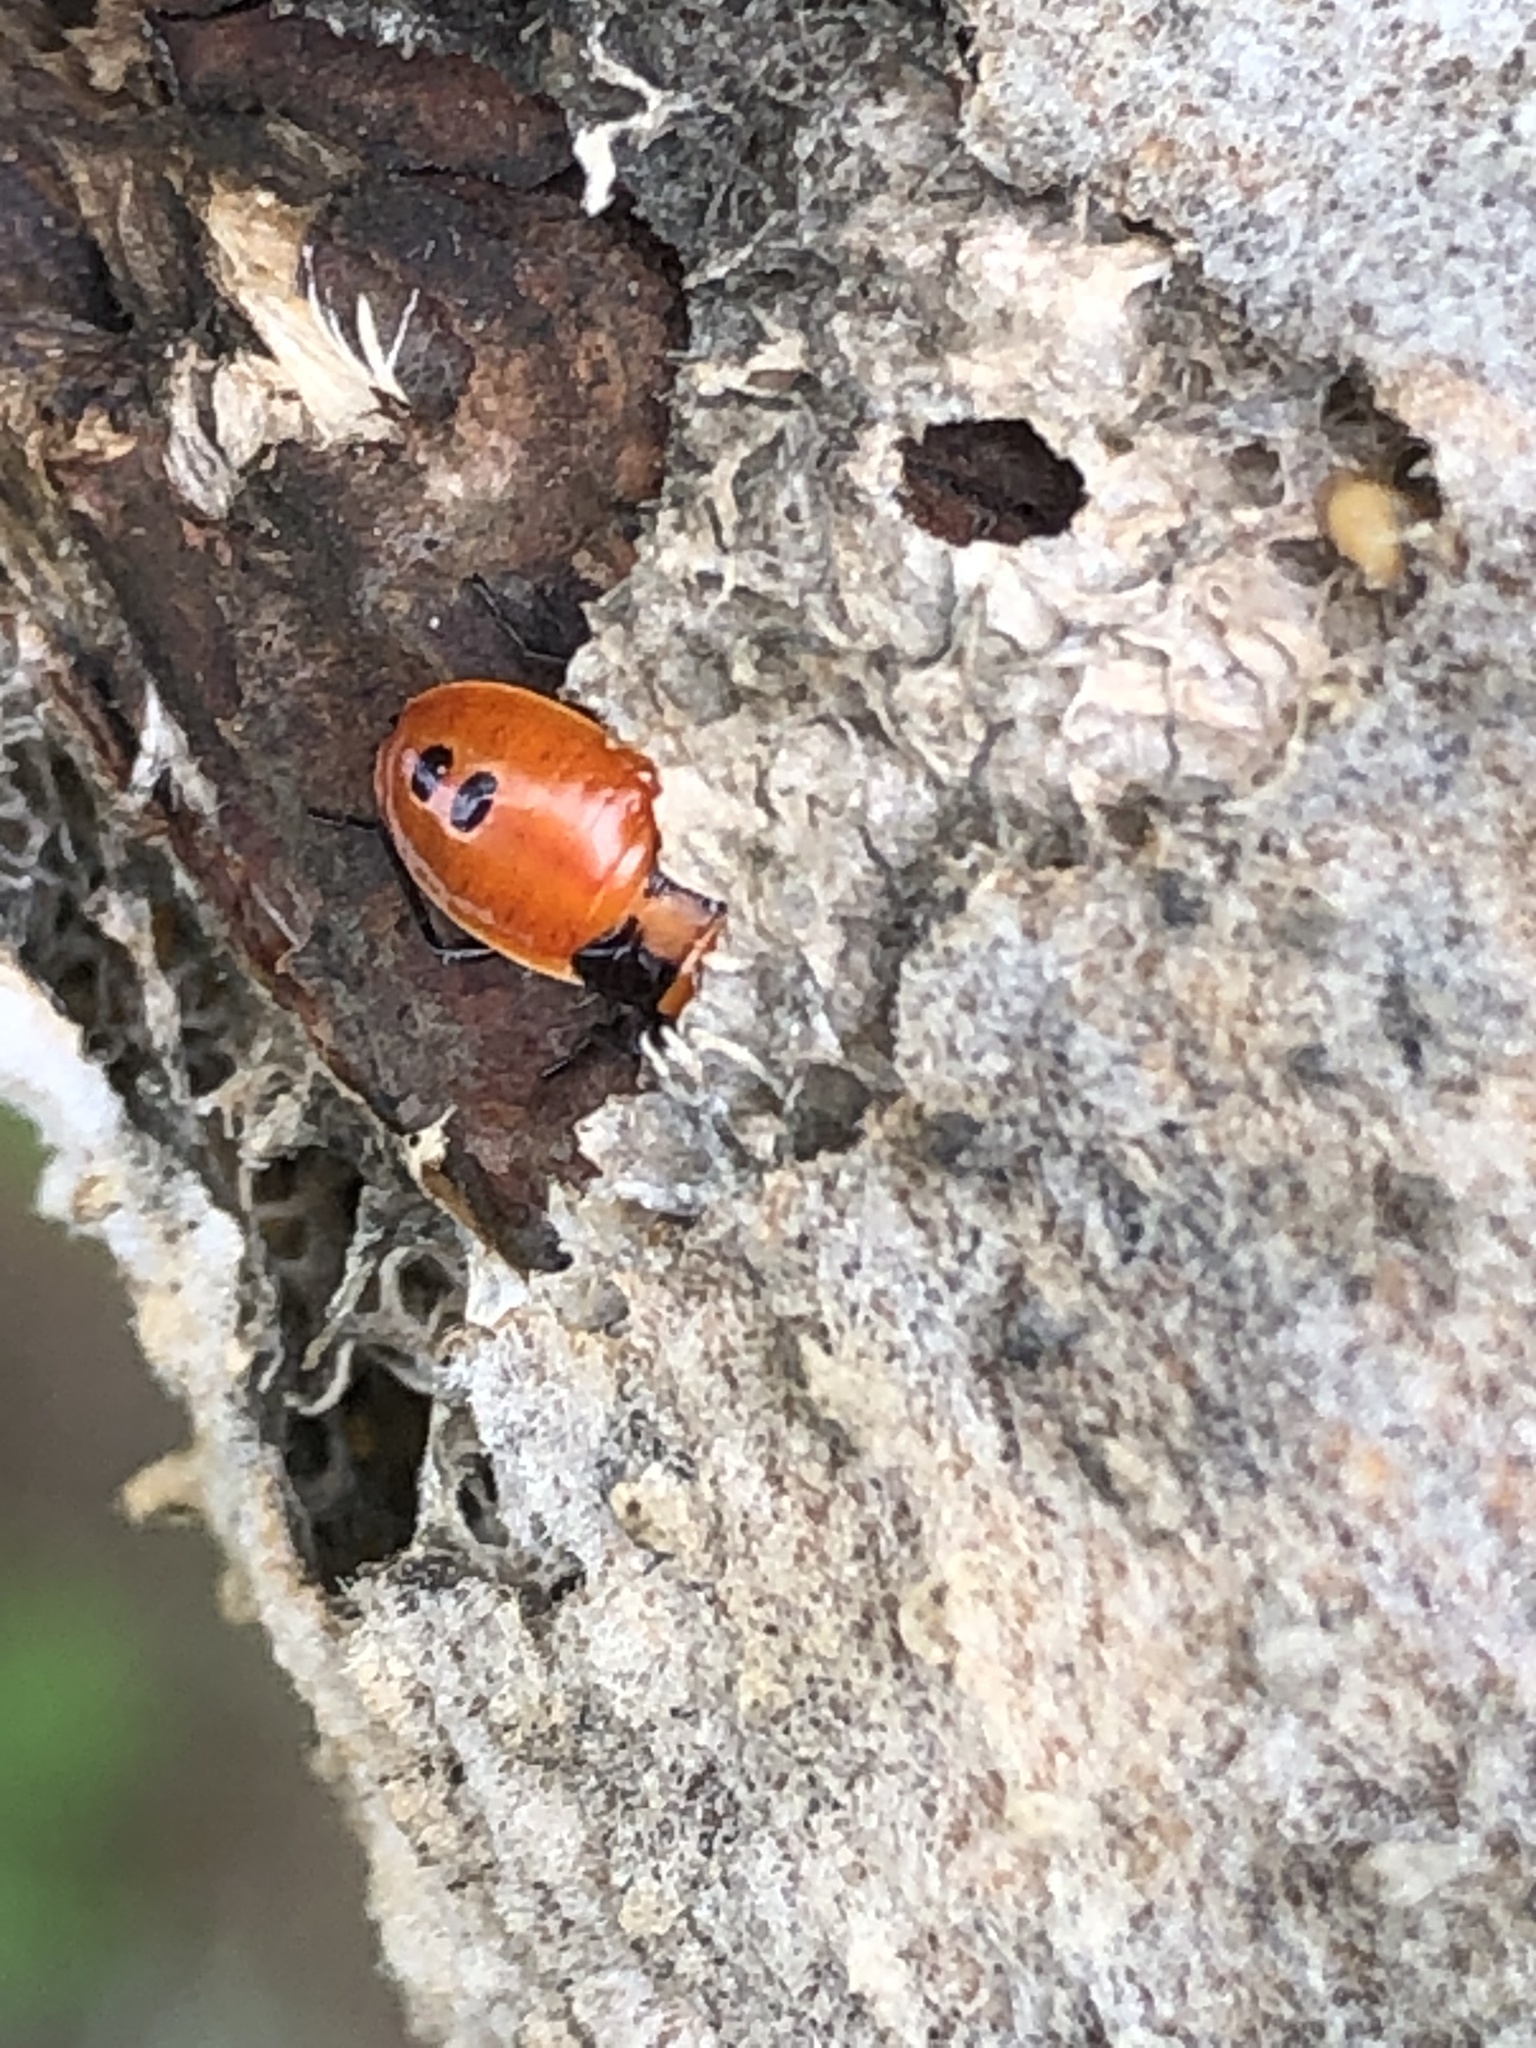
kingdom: Animalia
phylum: Arthropoda
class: Insecta
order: Hemiptera
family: Lygaeidae
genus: Lygaeus
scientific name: Lygaeus turcicus
